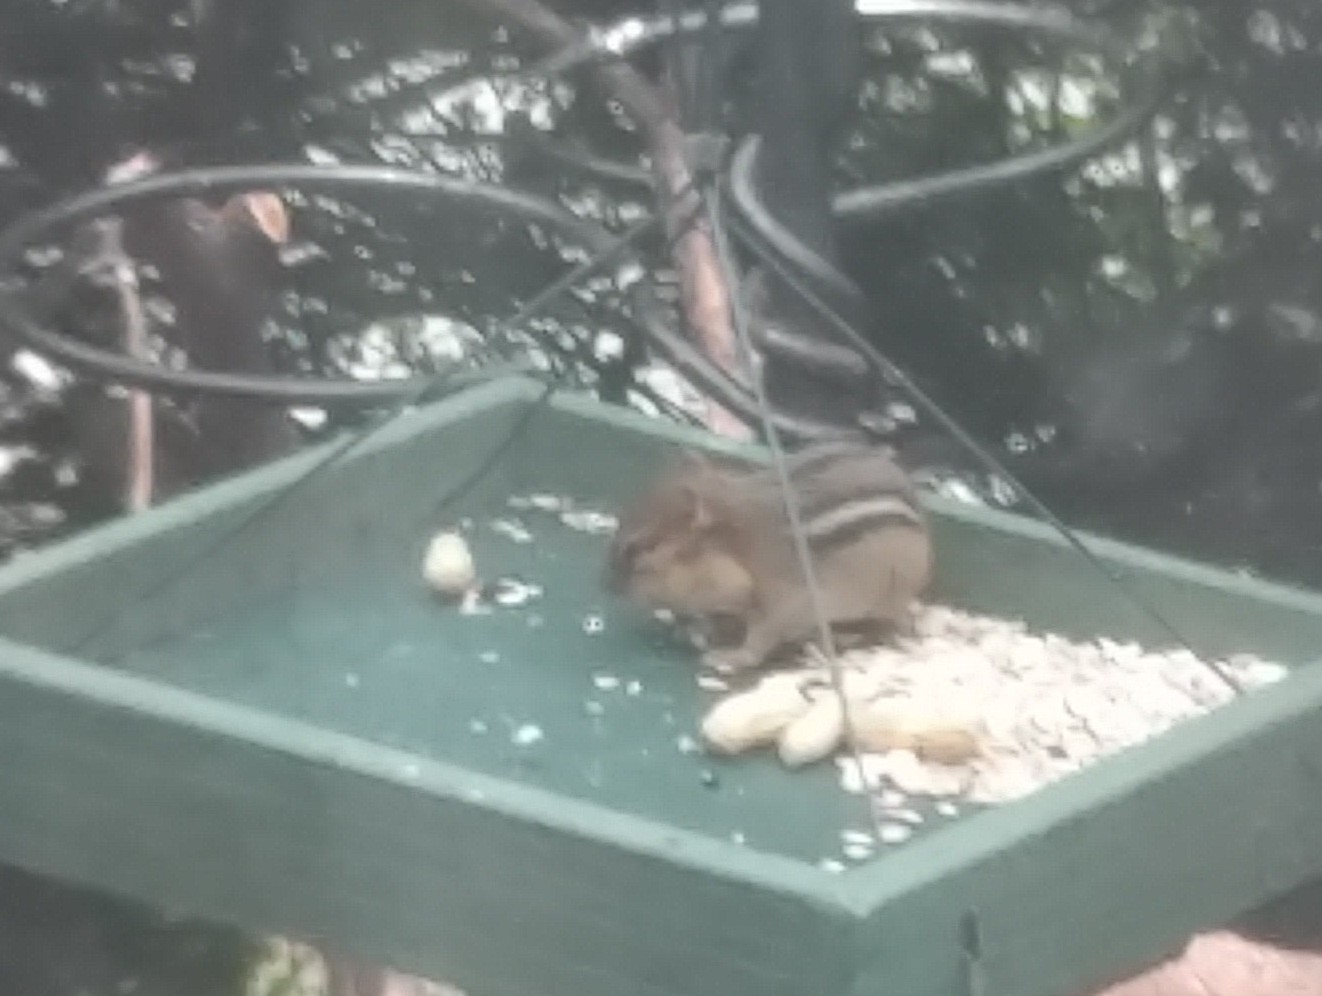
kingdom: Animalia
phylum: Chordata
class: Mammalia
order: Rodentia
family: Sciuridae
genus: Tamias
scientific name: Tamias striatus
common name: Eastern chipmunk
